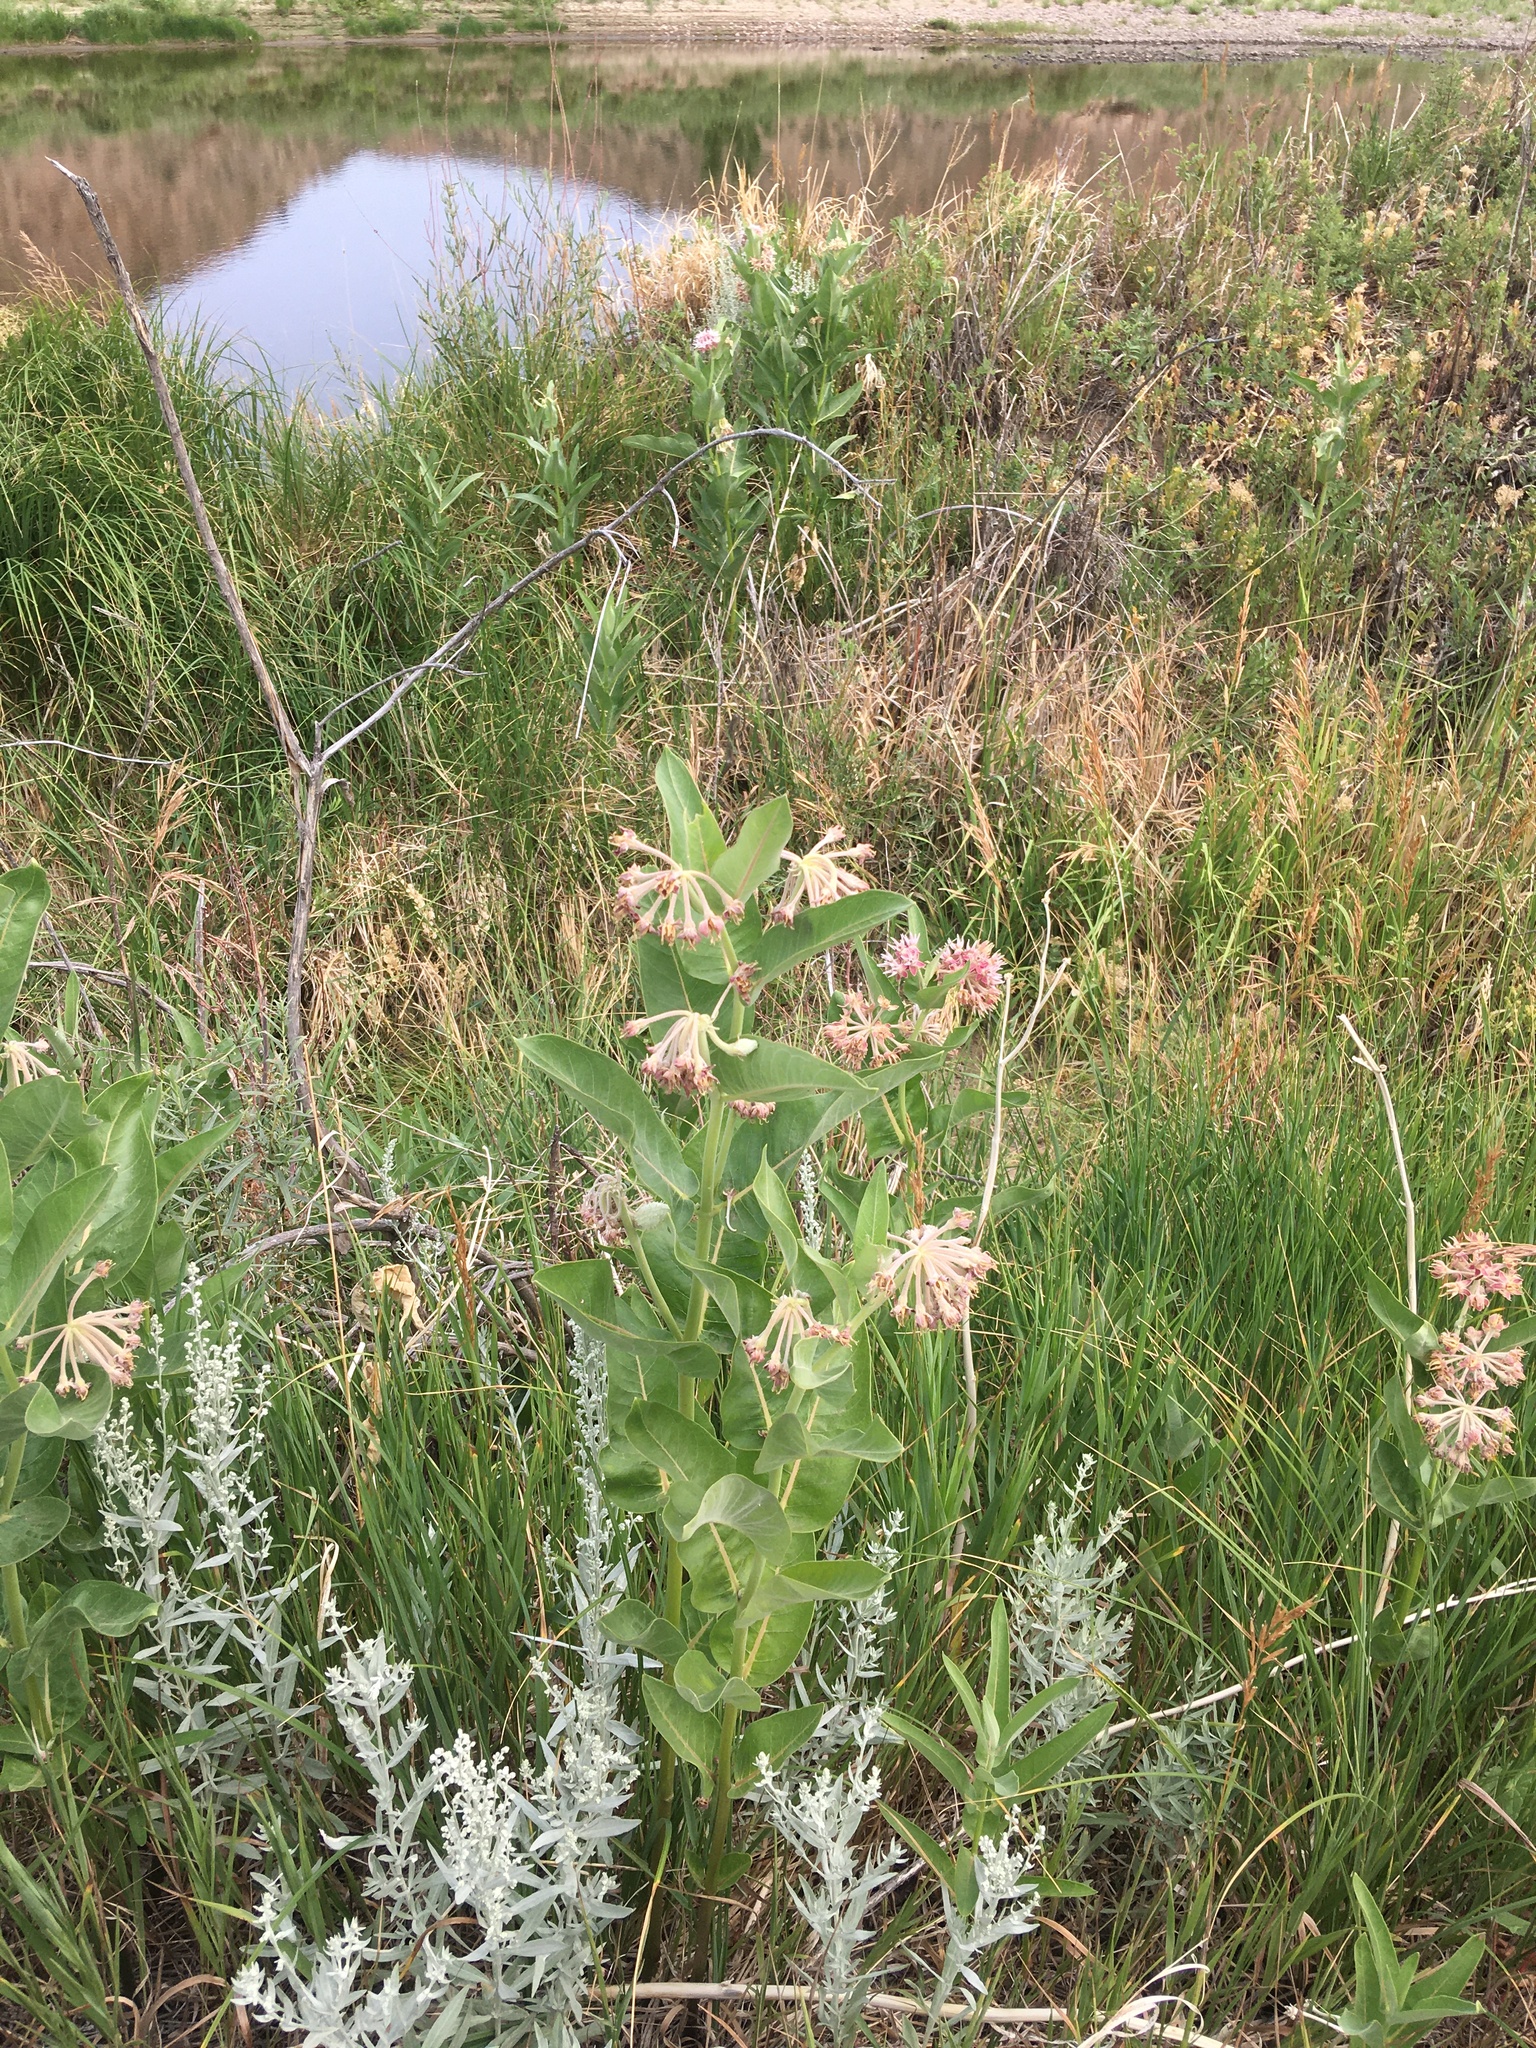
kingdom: Plantae
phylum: Tracheophyta
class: Magnoliopsida
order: Gentianales
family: Apocynaceae
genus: Asclepias
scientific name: Asclepias speciosa
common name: Showy milkweed
